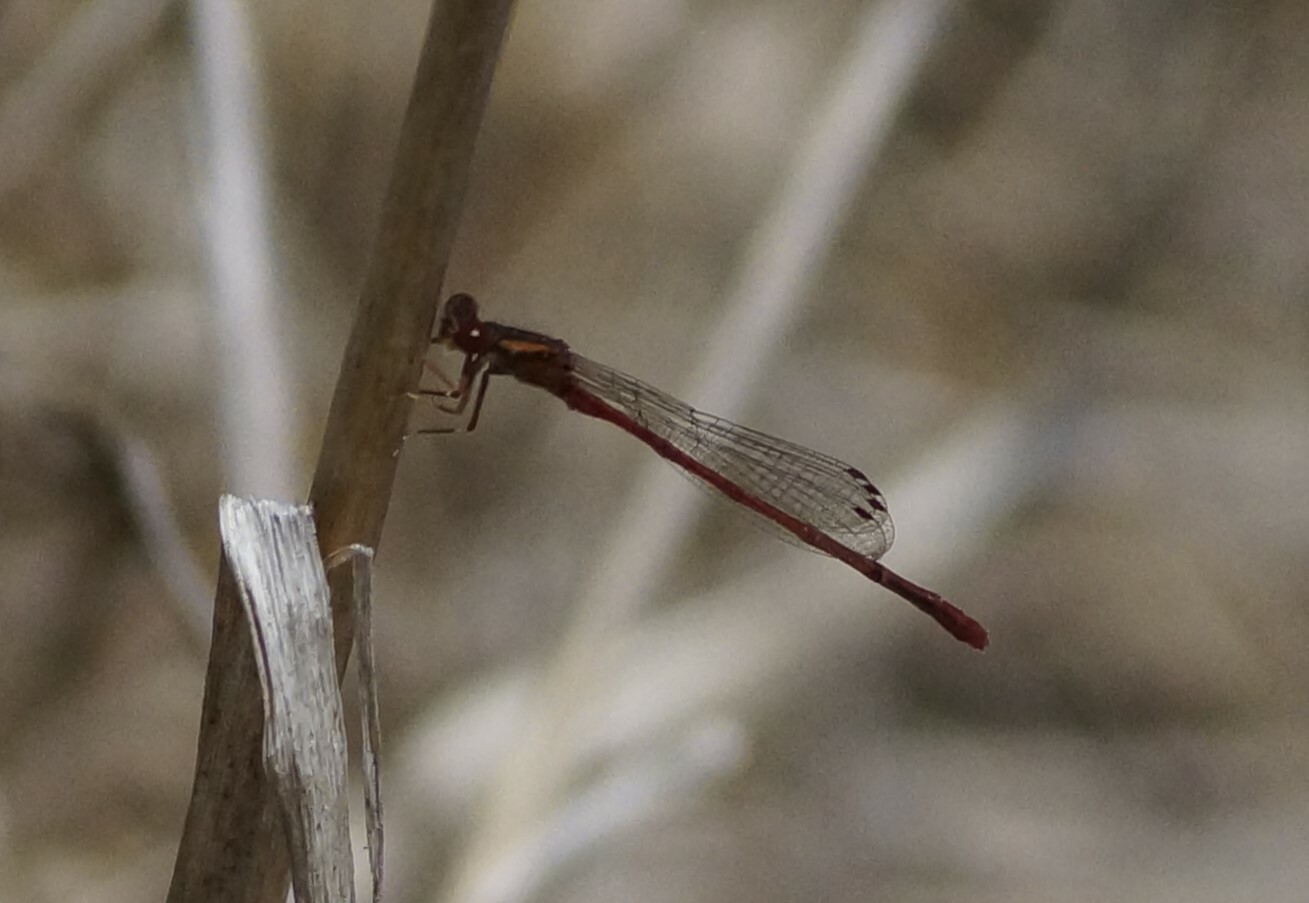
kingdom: Animalia
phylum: Arthropoda
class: Insecta
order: Odonata
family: Coenagrionidae
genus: Xanthocnemis
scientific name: Xanthocnemis zealandica
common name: Common redcoat damselfly
